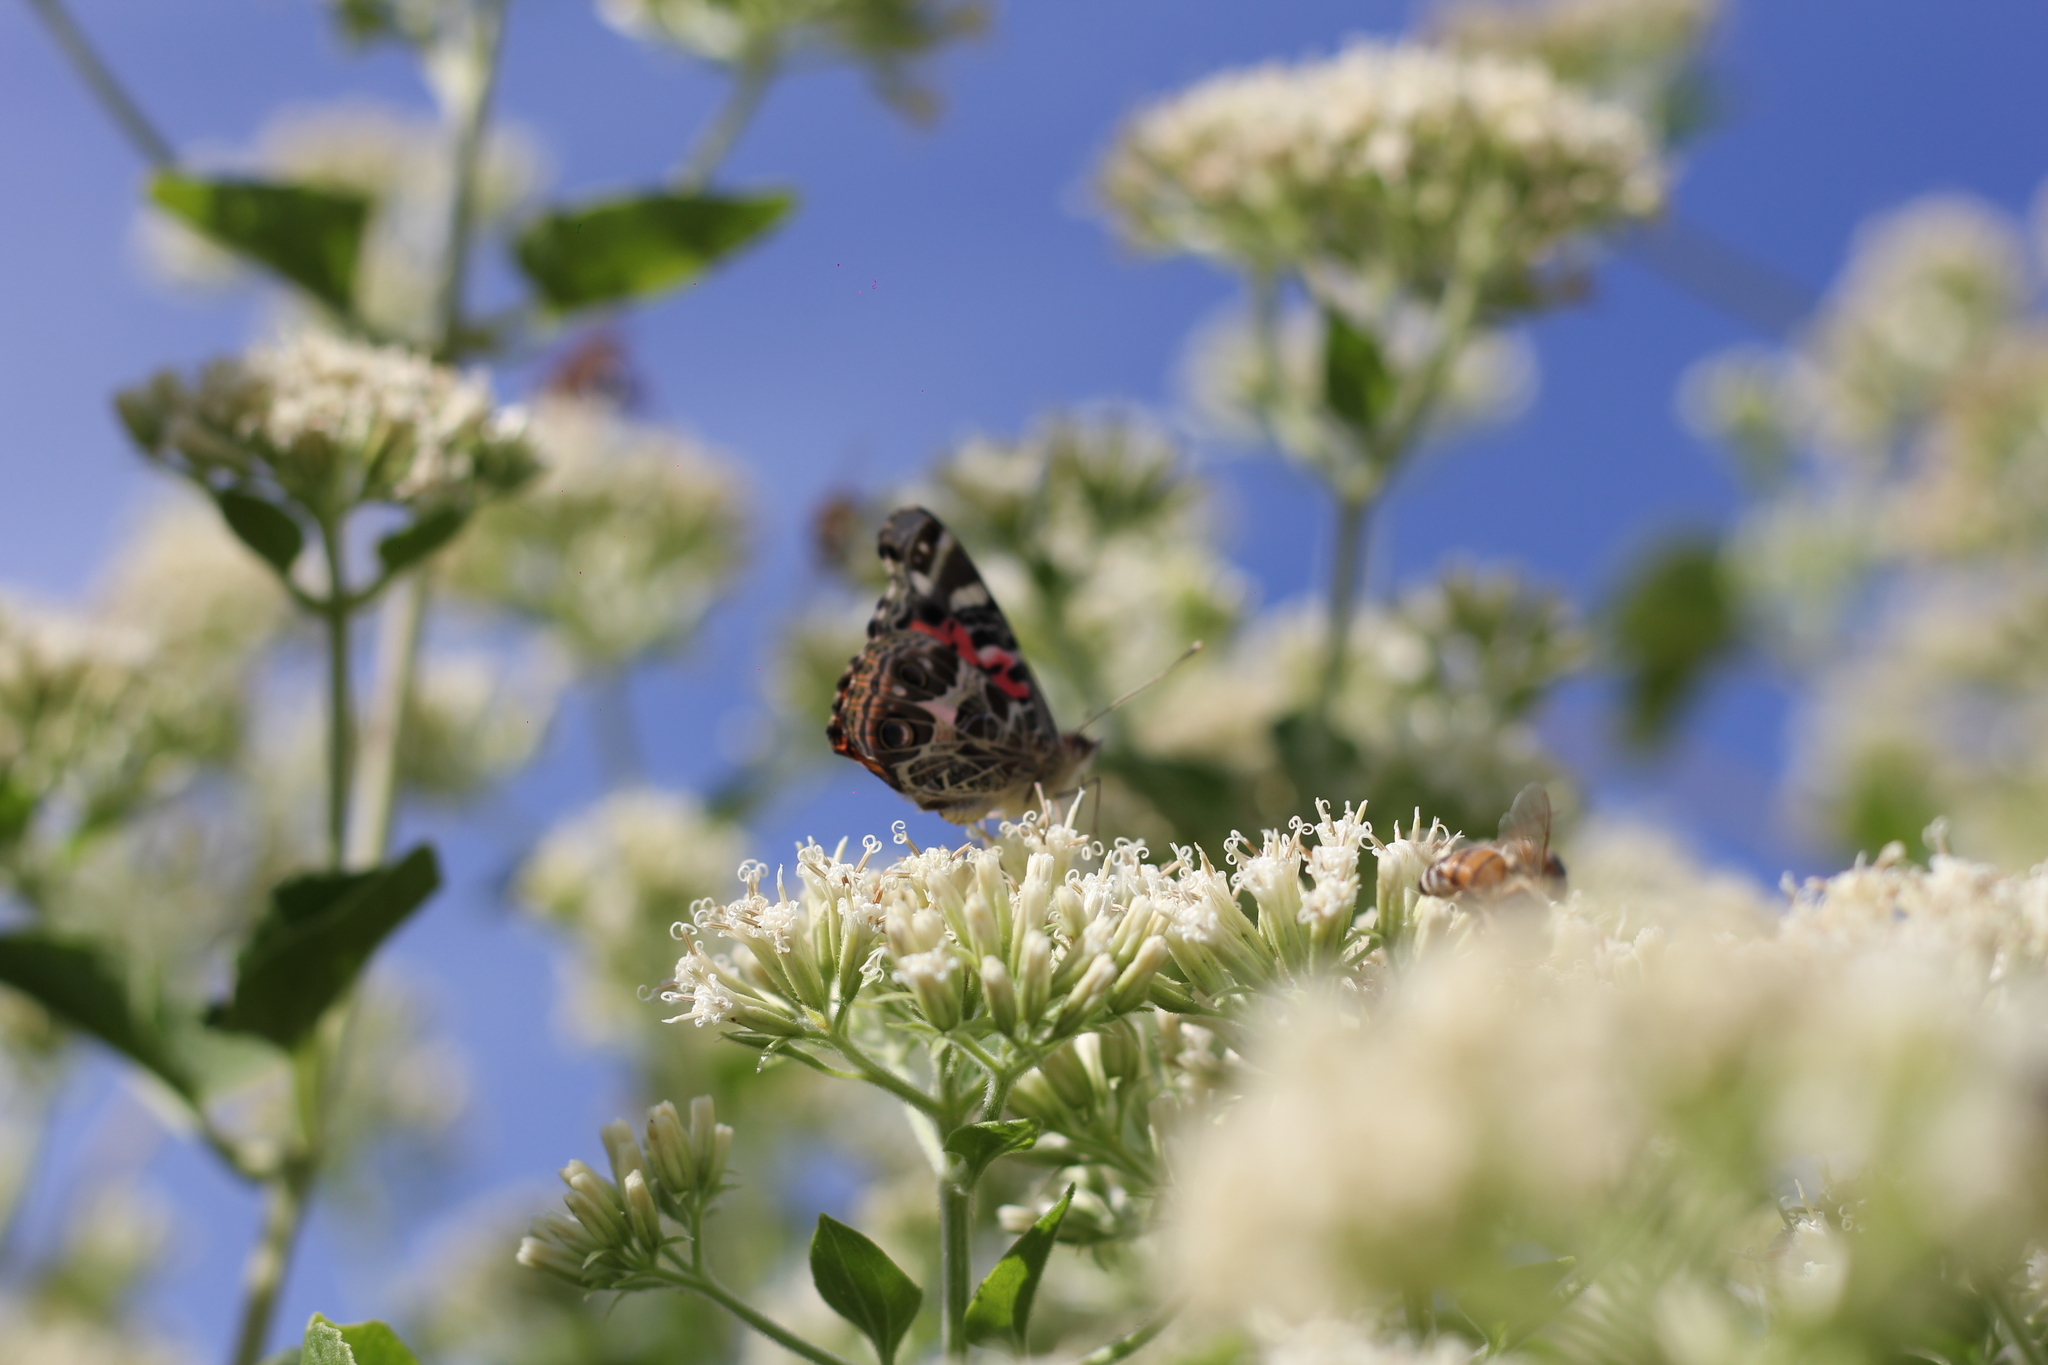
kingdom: Animalia
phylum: Arthropoda
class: Insecta
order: Lepidoptera
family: Nymphalidae
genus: Vanessa
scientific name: Vanessa braziliensis
